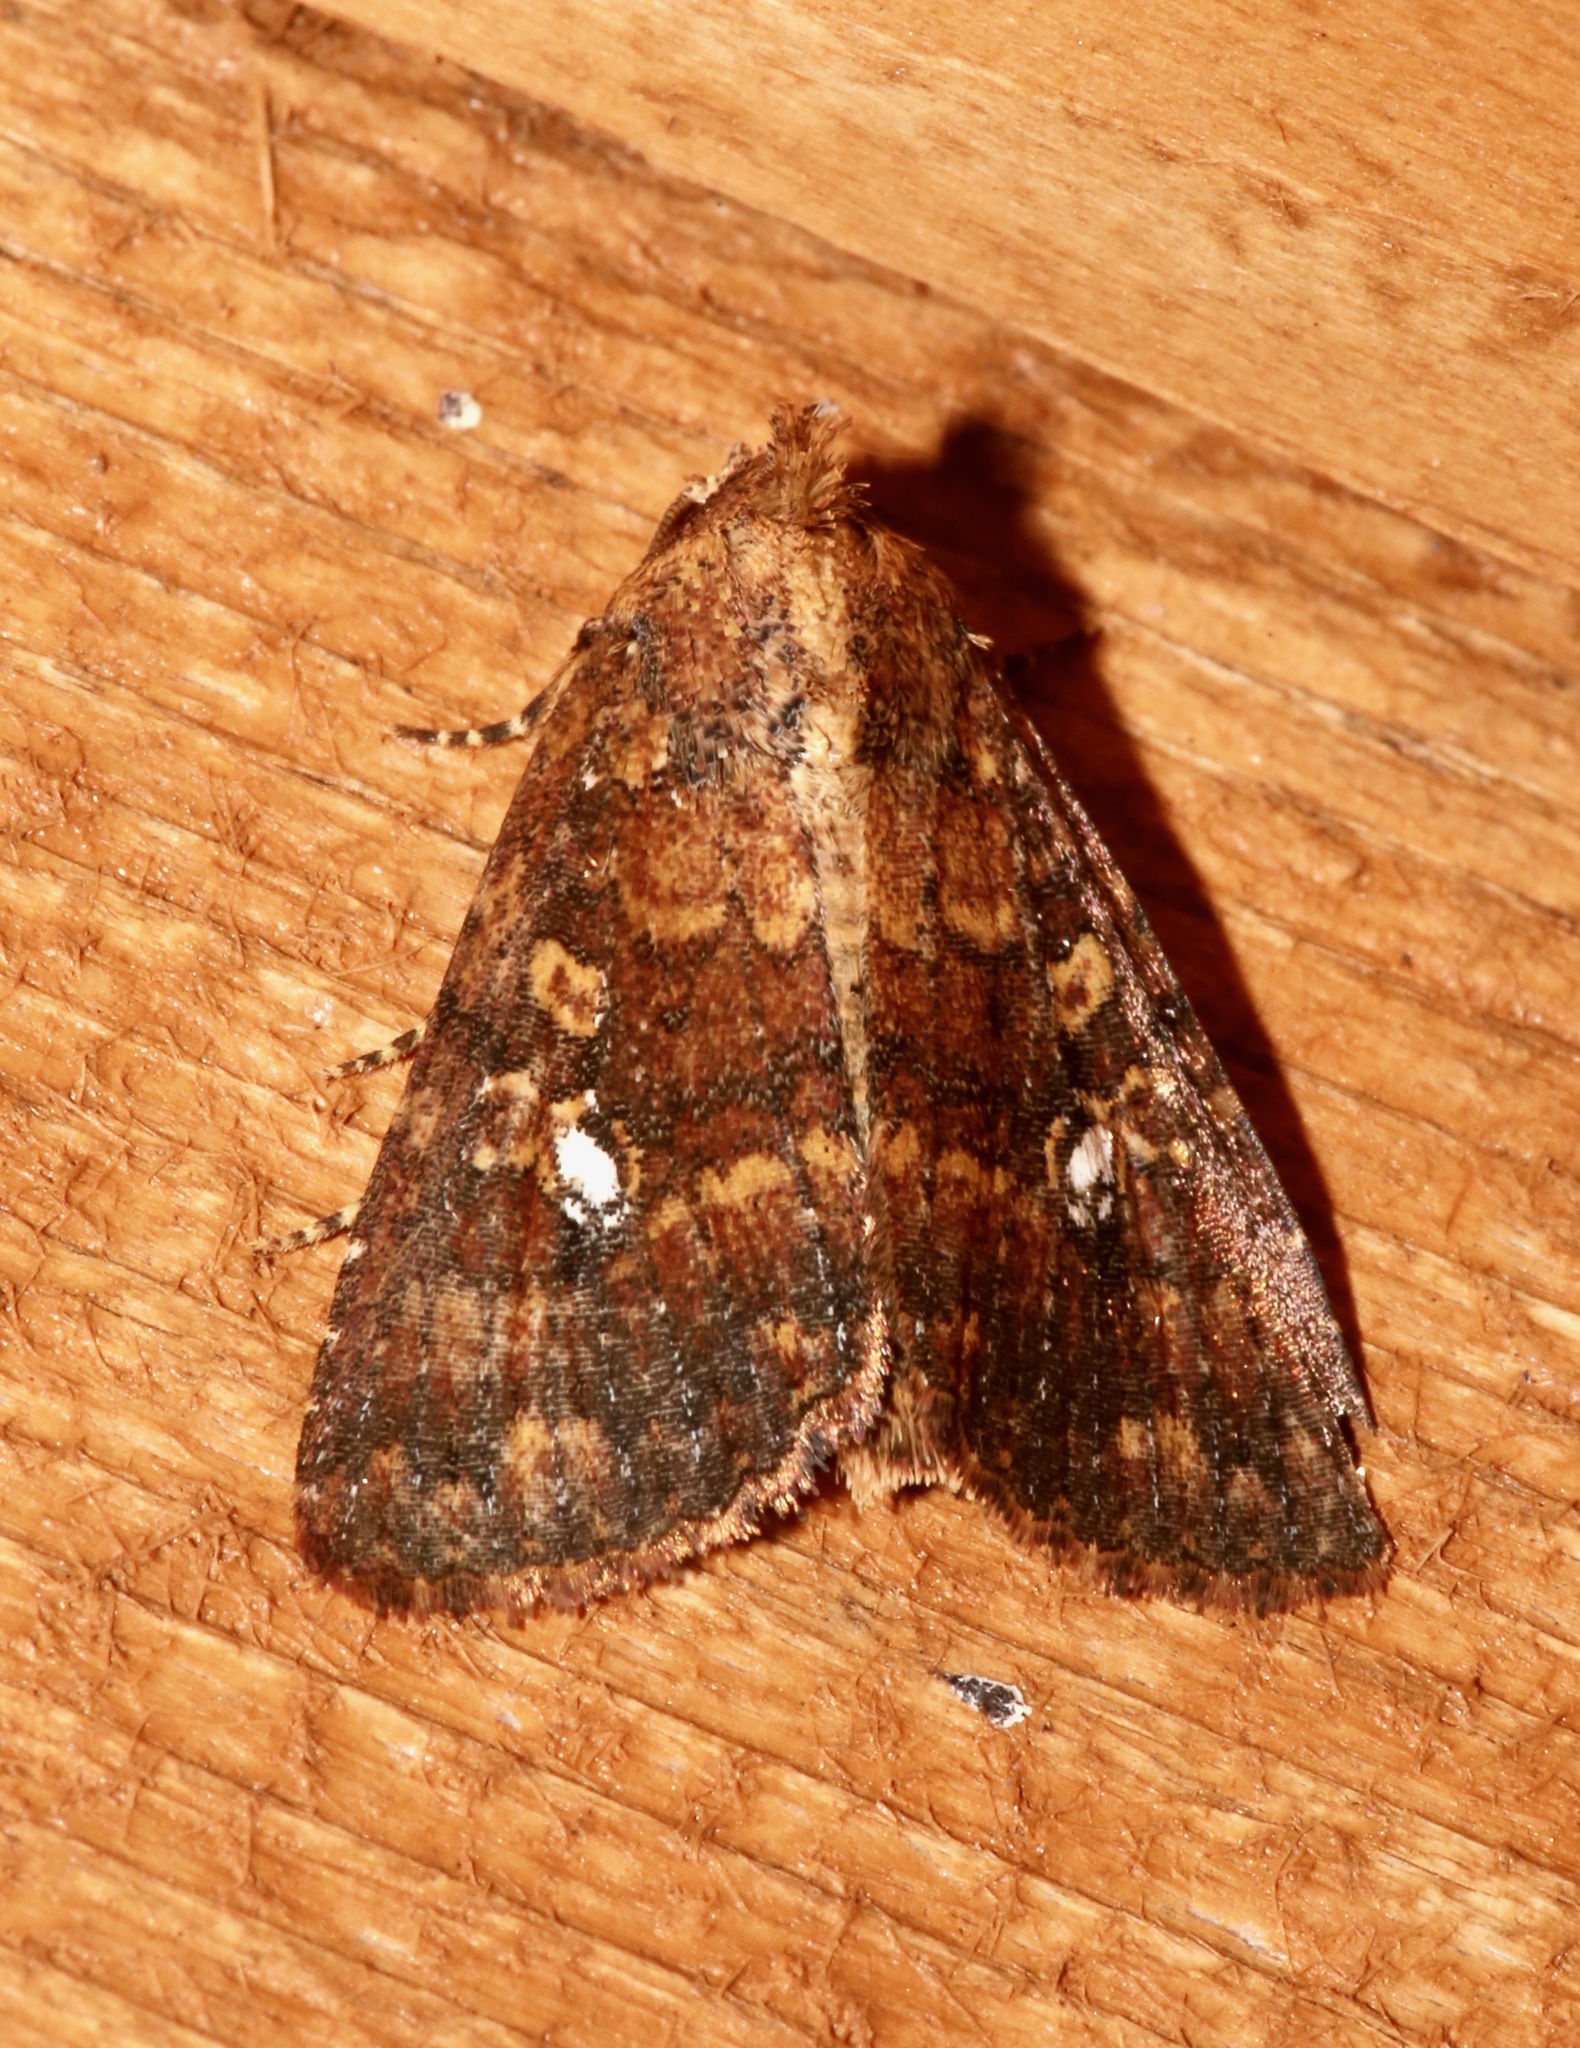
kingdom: Animalia
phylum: Arthropoda
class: Insecta
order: Lepidoptera
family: Noctuidae
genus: Condica
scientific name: Condica mobilis
